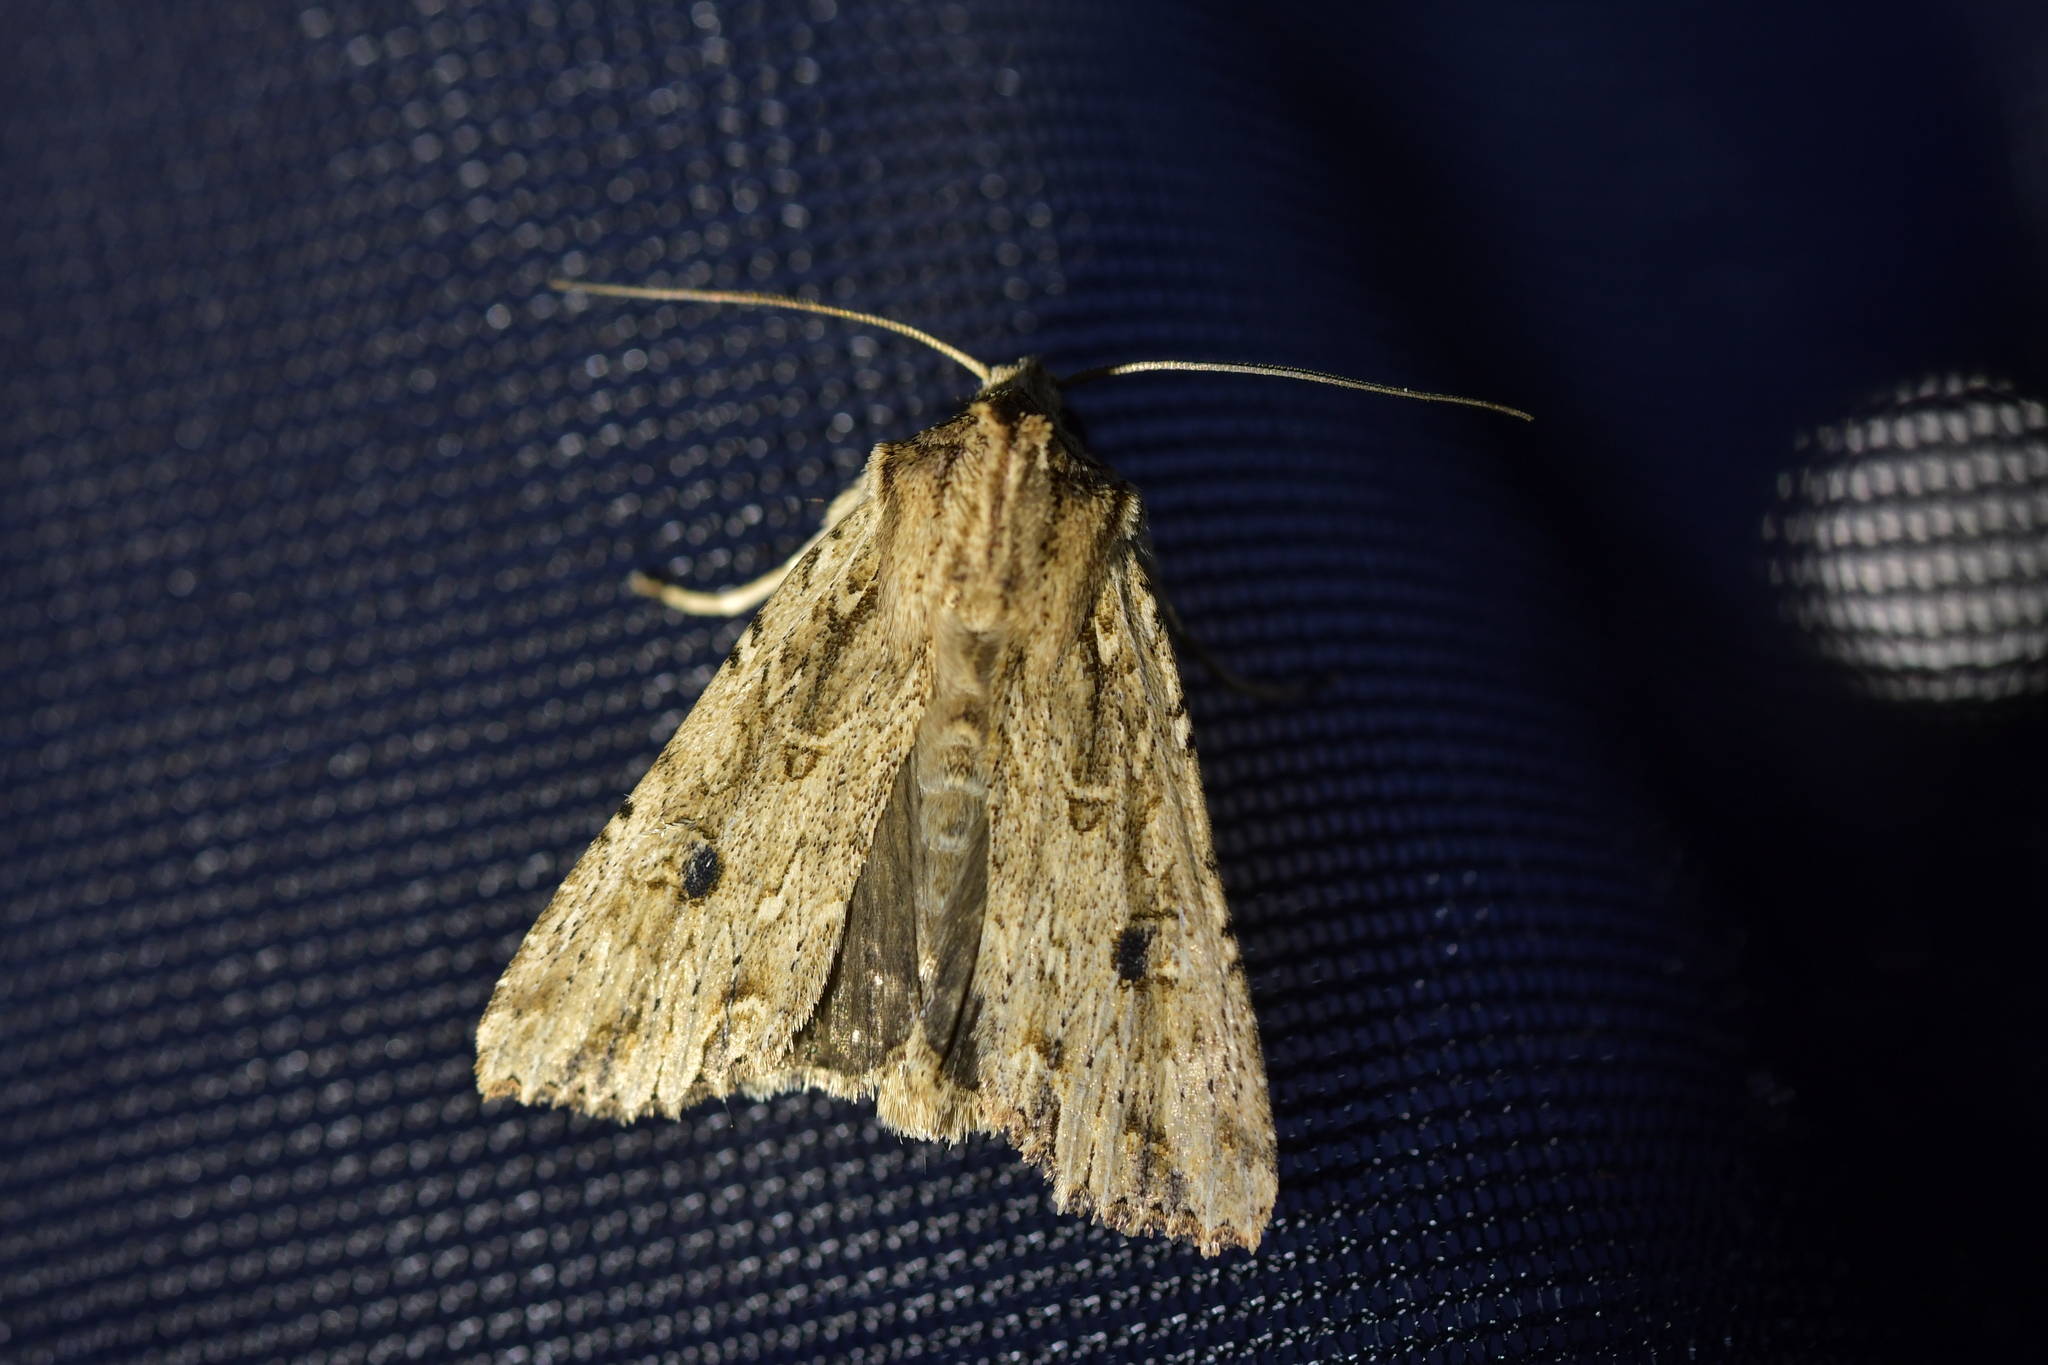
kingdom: Animalia
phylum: Arthropoda
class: Insecta
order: Lepidoptera
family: Noctuidae
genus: Ichneutica
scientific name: Ichneutica lignana
